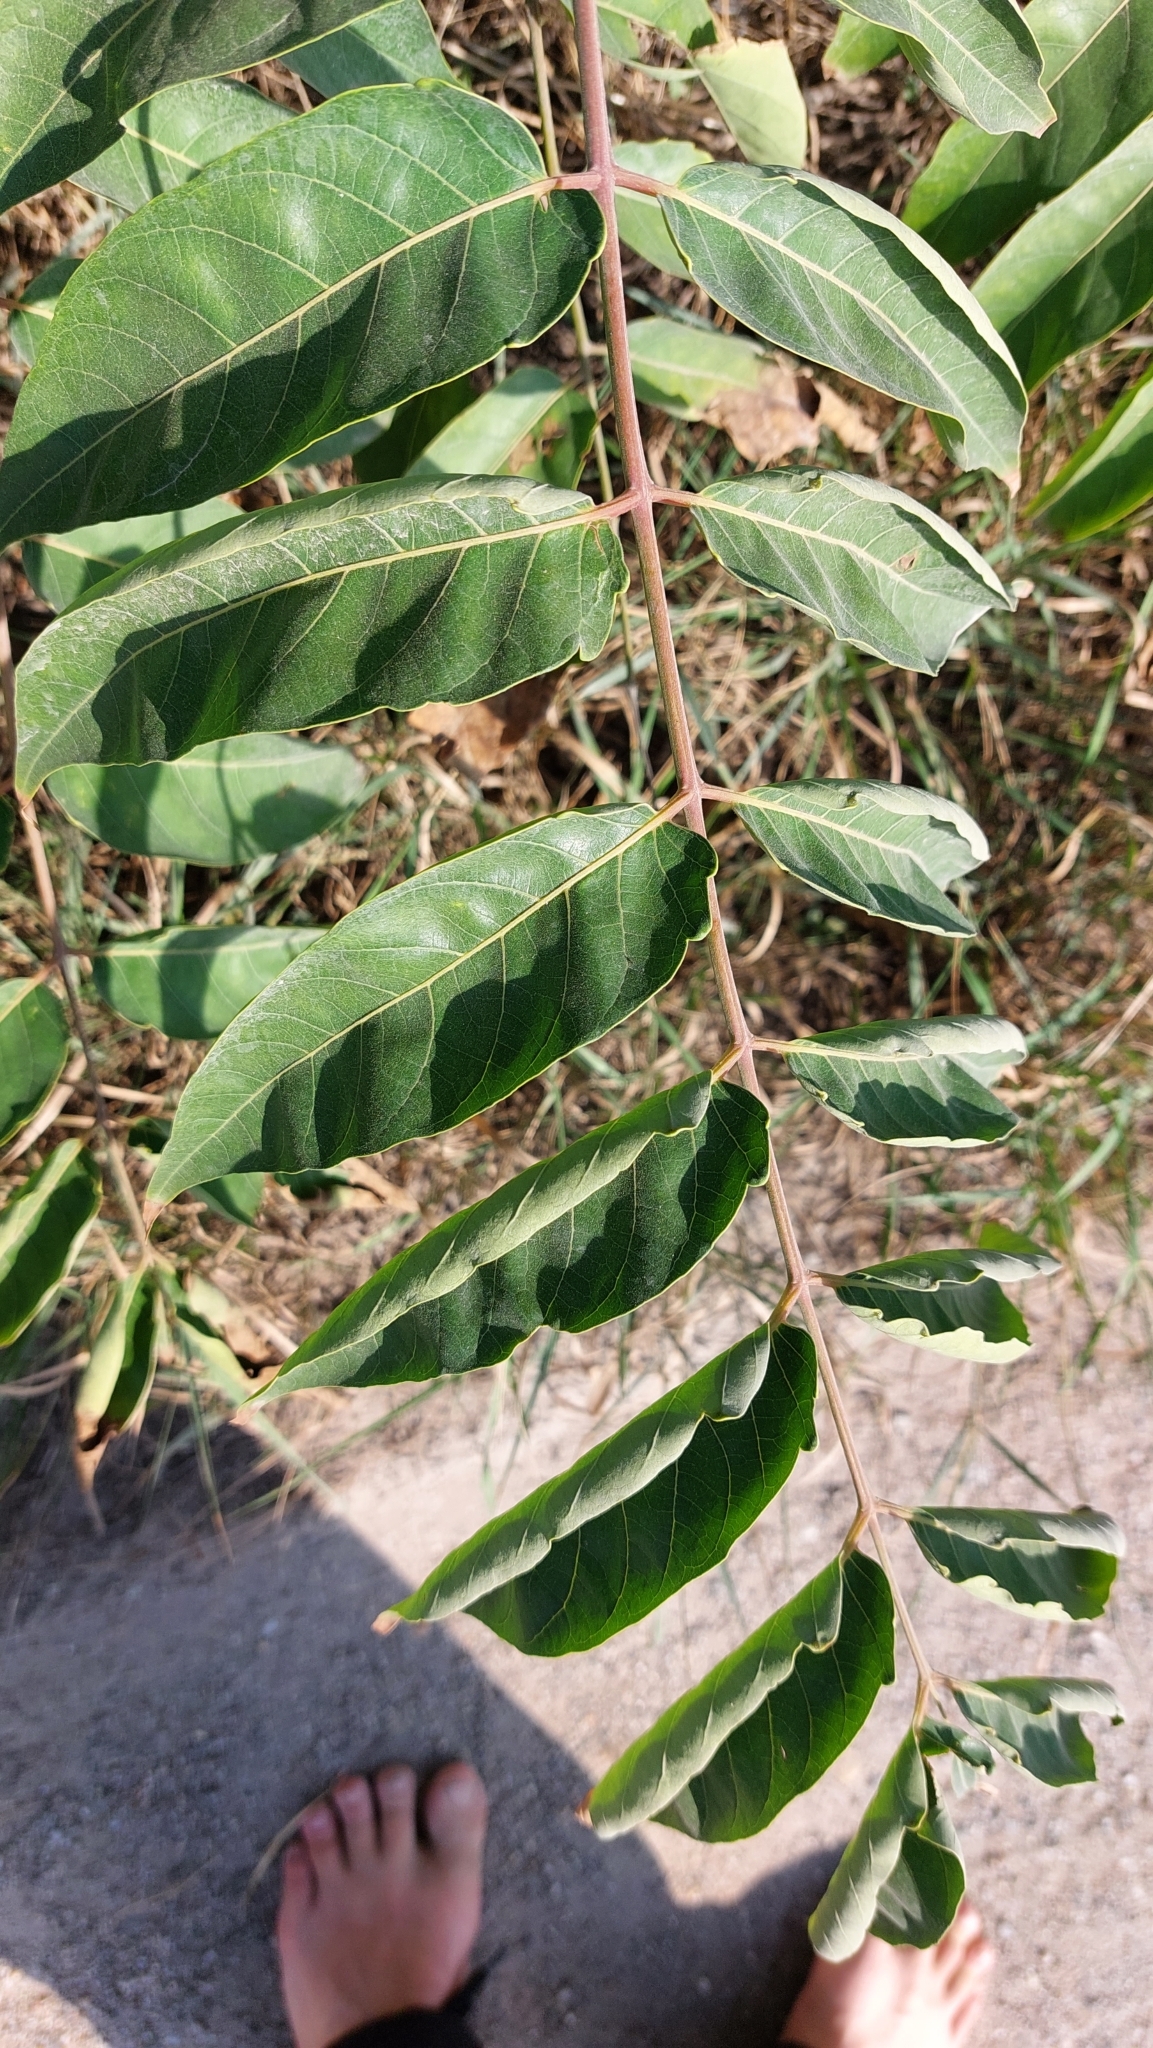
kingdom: Plantae
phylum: Tracheophyta
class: Magnoliopsida
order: Sapindales
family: Simaroubaceae
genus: Ailanthus
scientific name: Ailanthus altissima
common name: Tree-of-heaven
